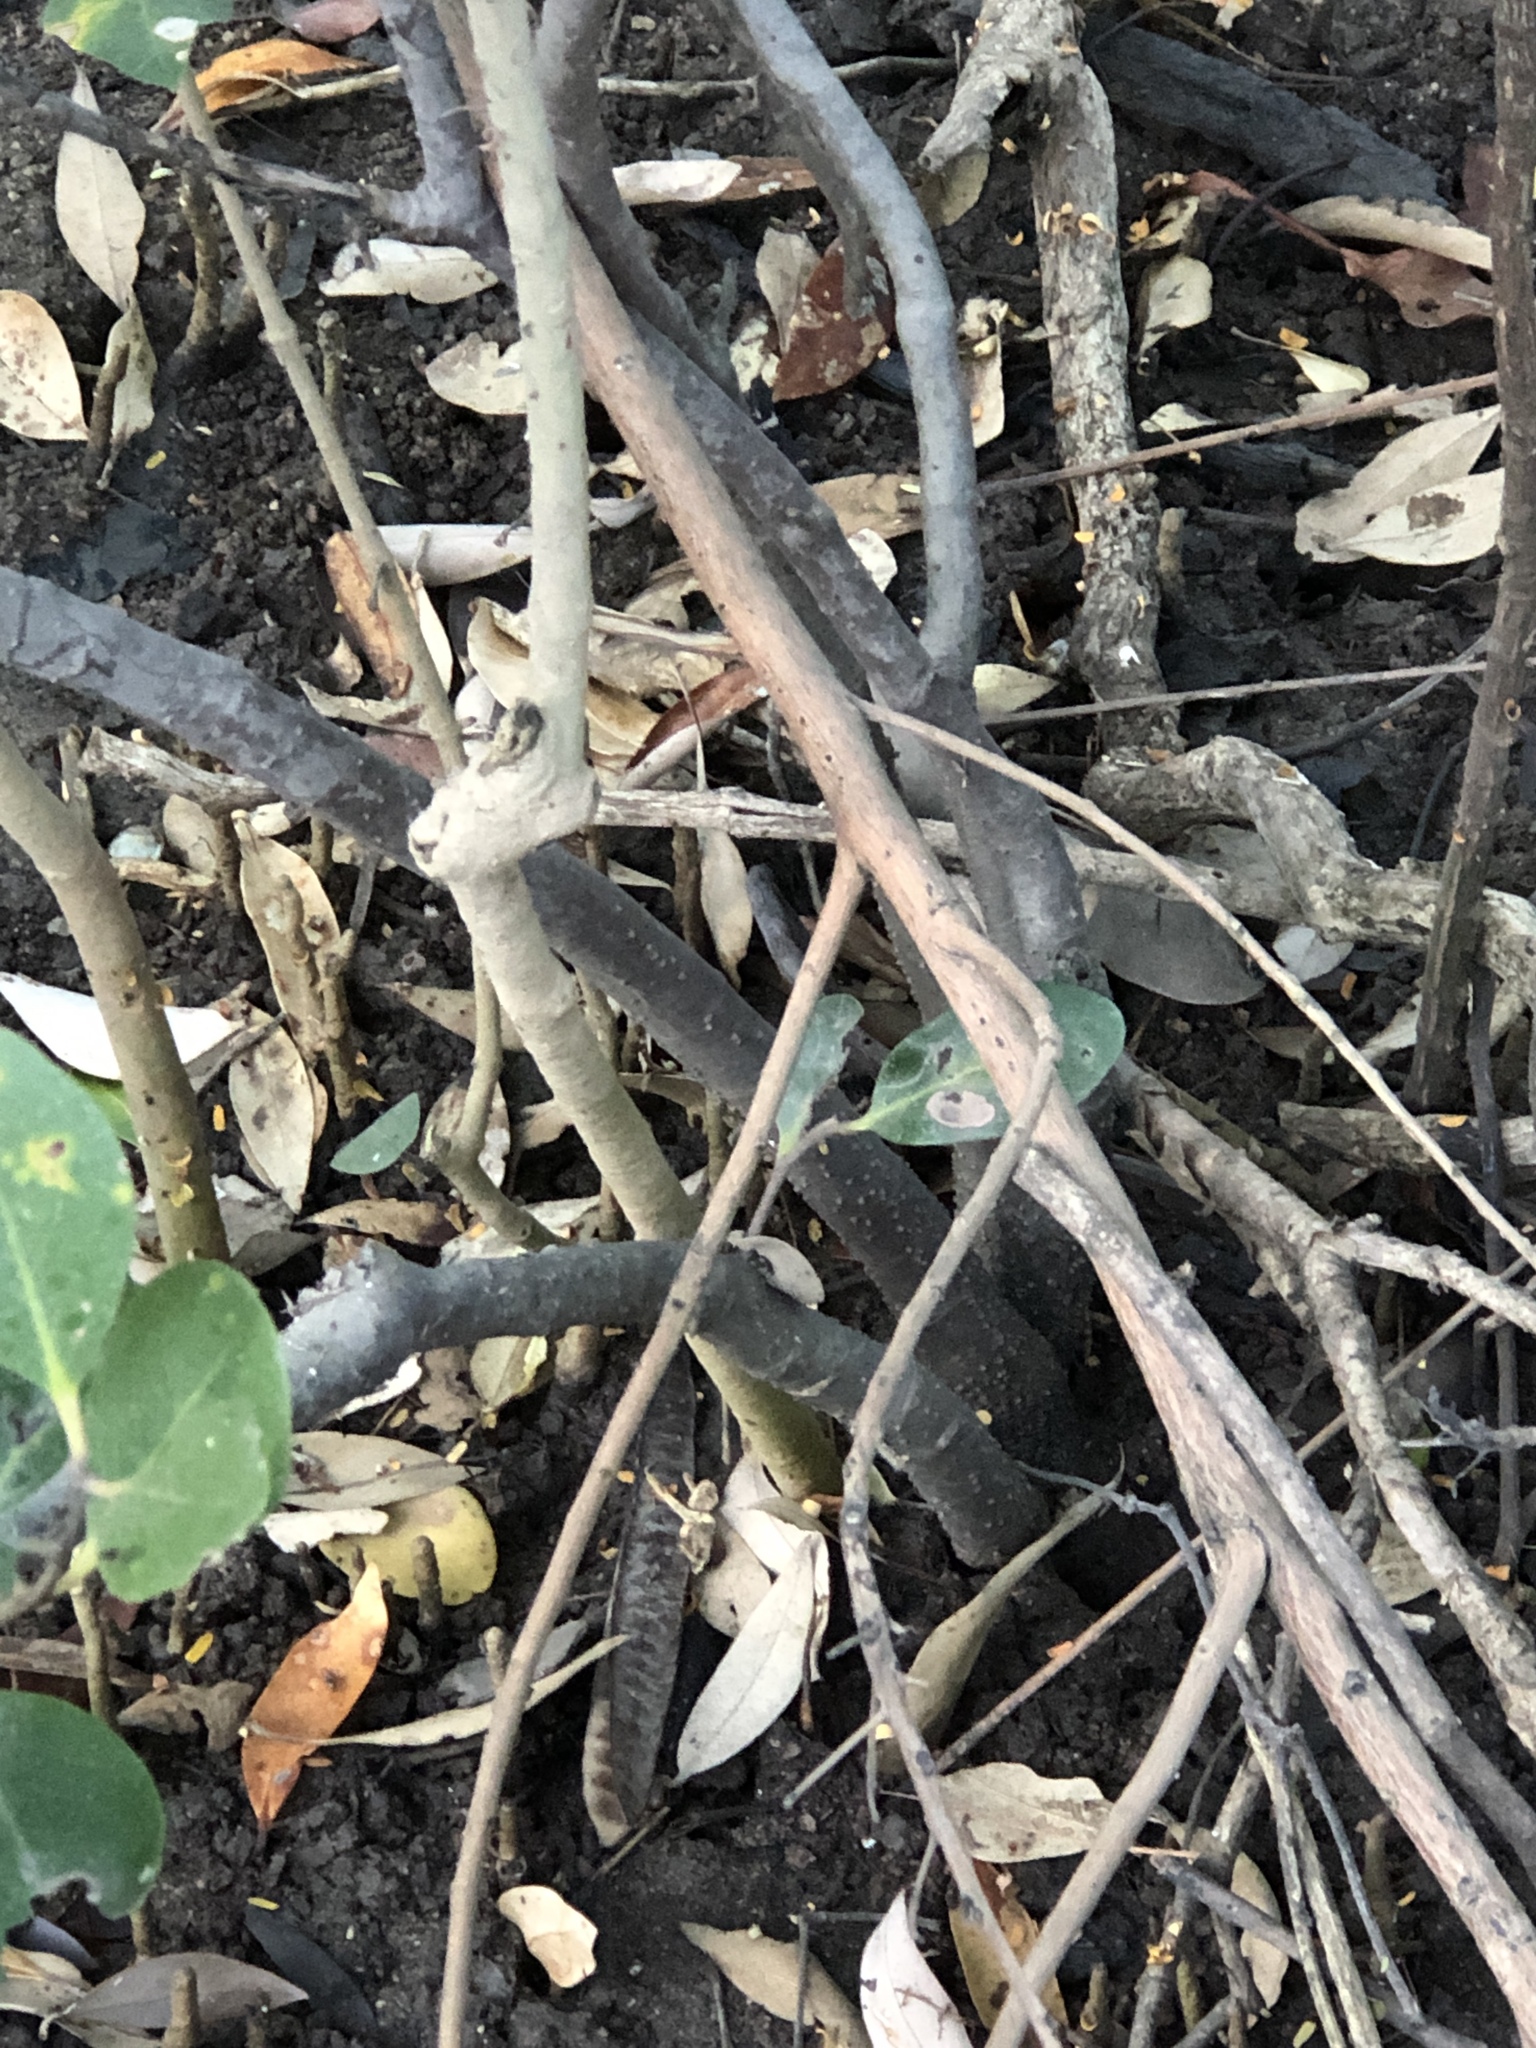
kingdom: Plantae
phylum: Tracheophyta
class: Magnoliopsida
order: Ericales
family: Primulaceae
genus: Aegiceras
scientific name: Aegiceras corniculatum
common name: River mangrove
